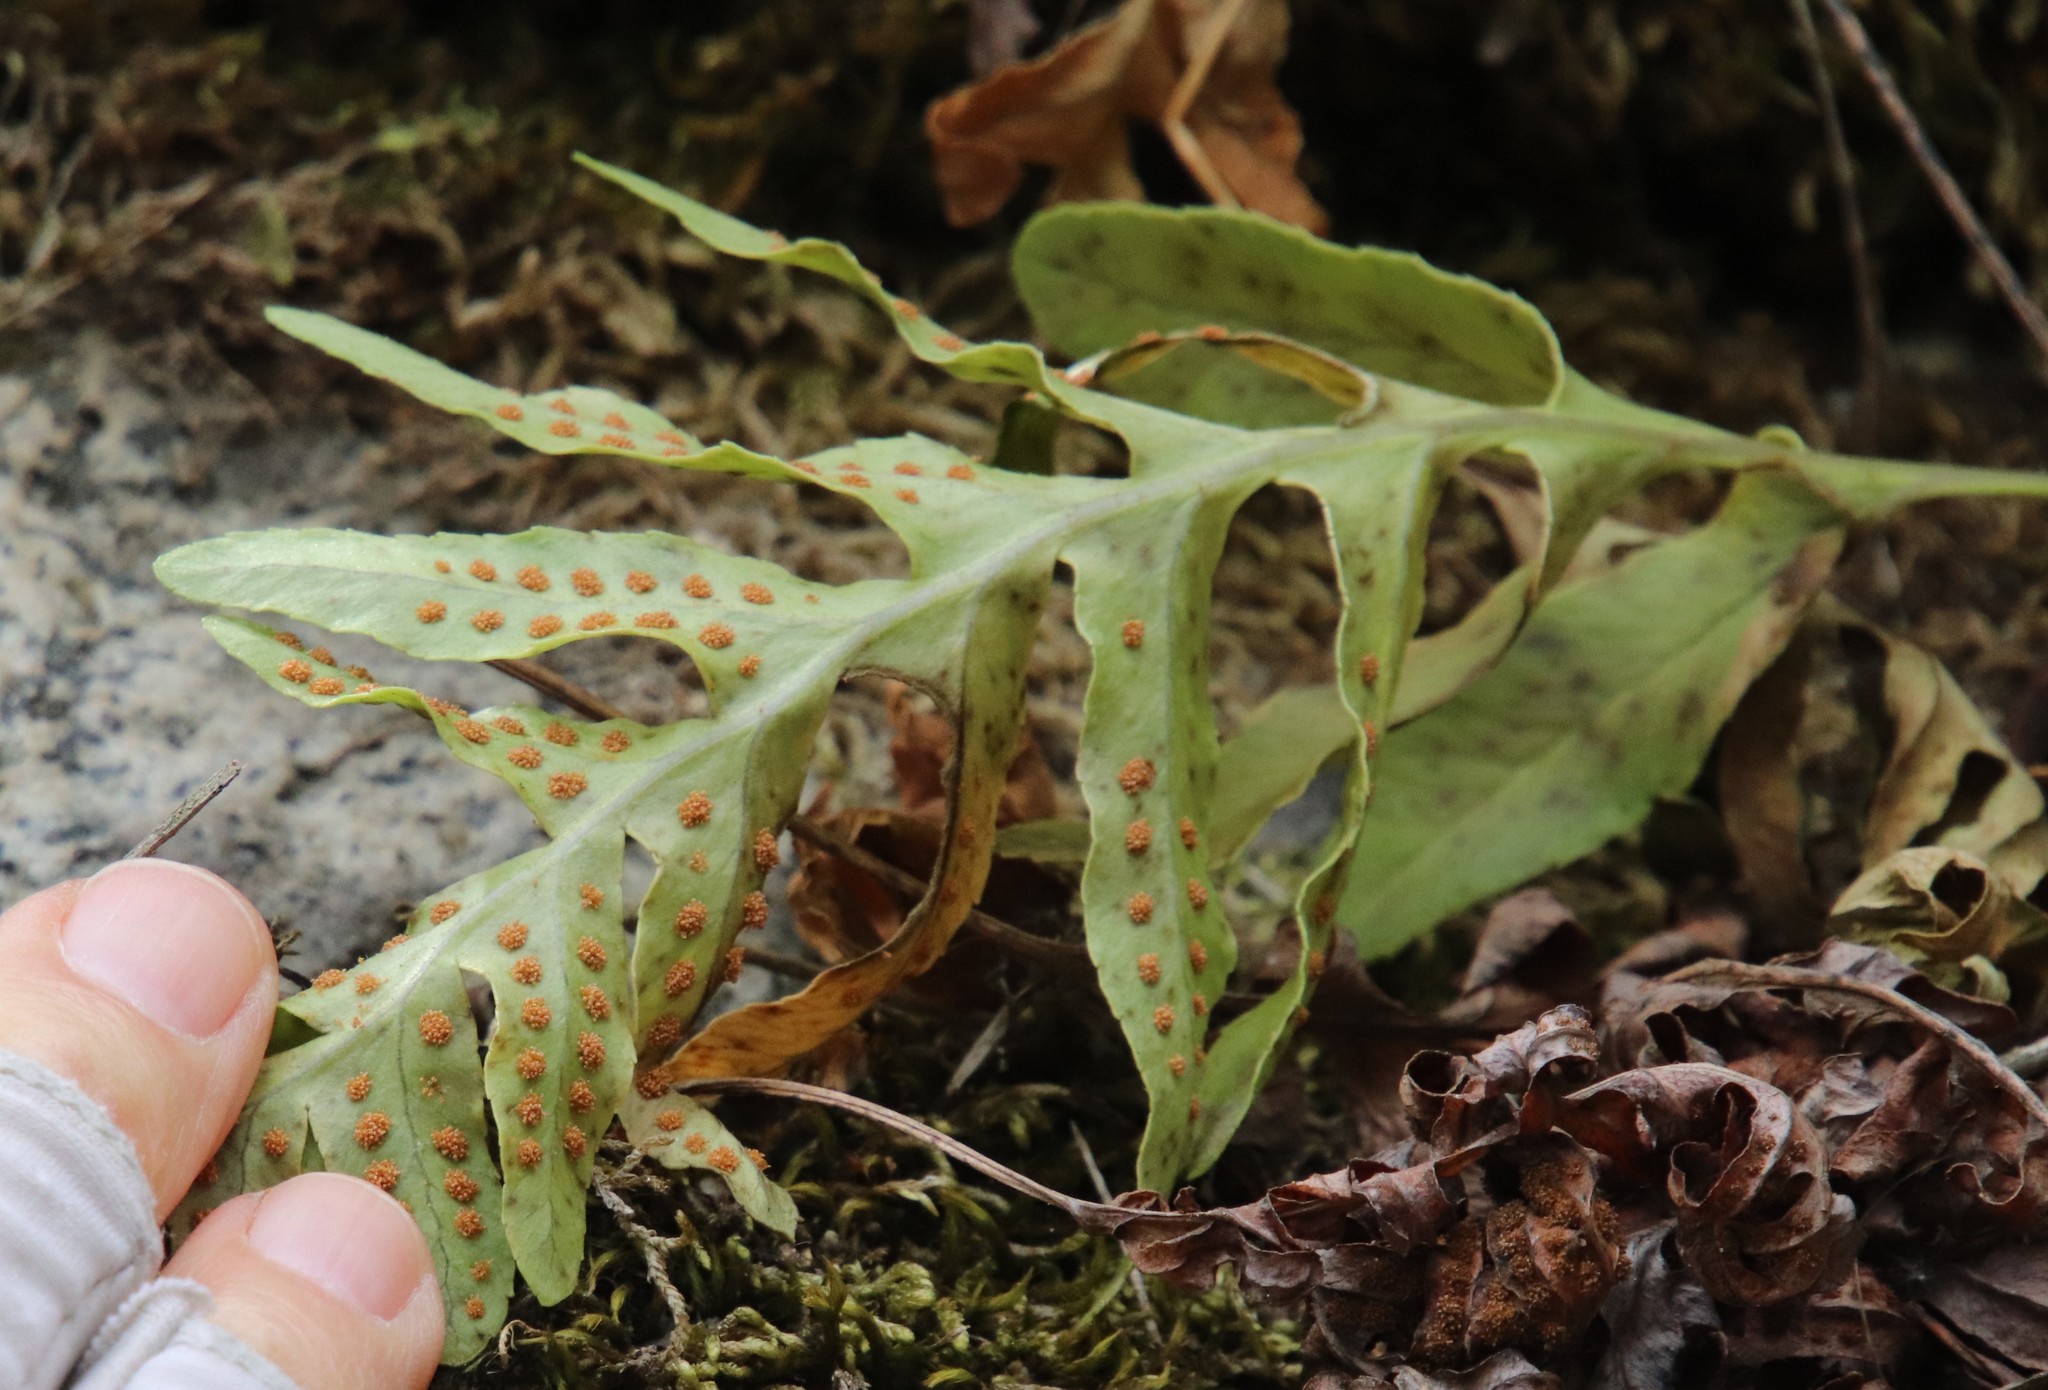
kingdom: Plantae
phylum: Tracheophyta
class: Polypodiopsida
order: Polypodiales
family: Polypodiaceae
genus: Polypodium
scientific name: Polypodium californicum
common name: California polypody
